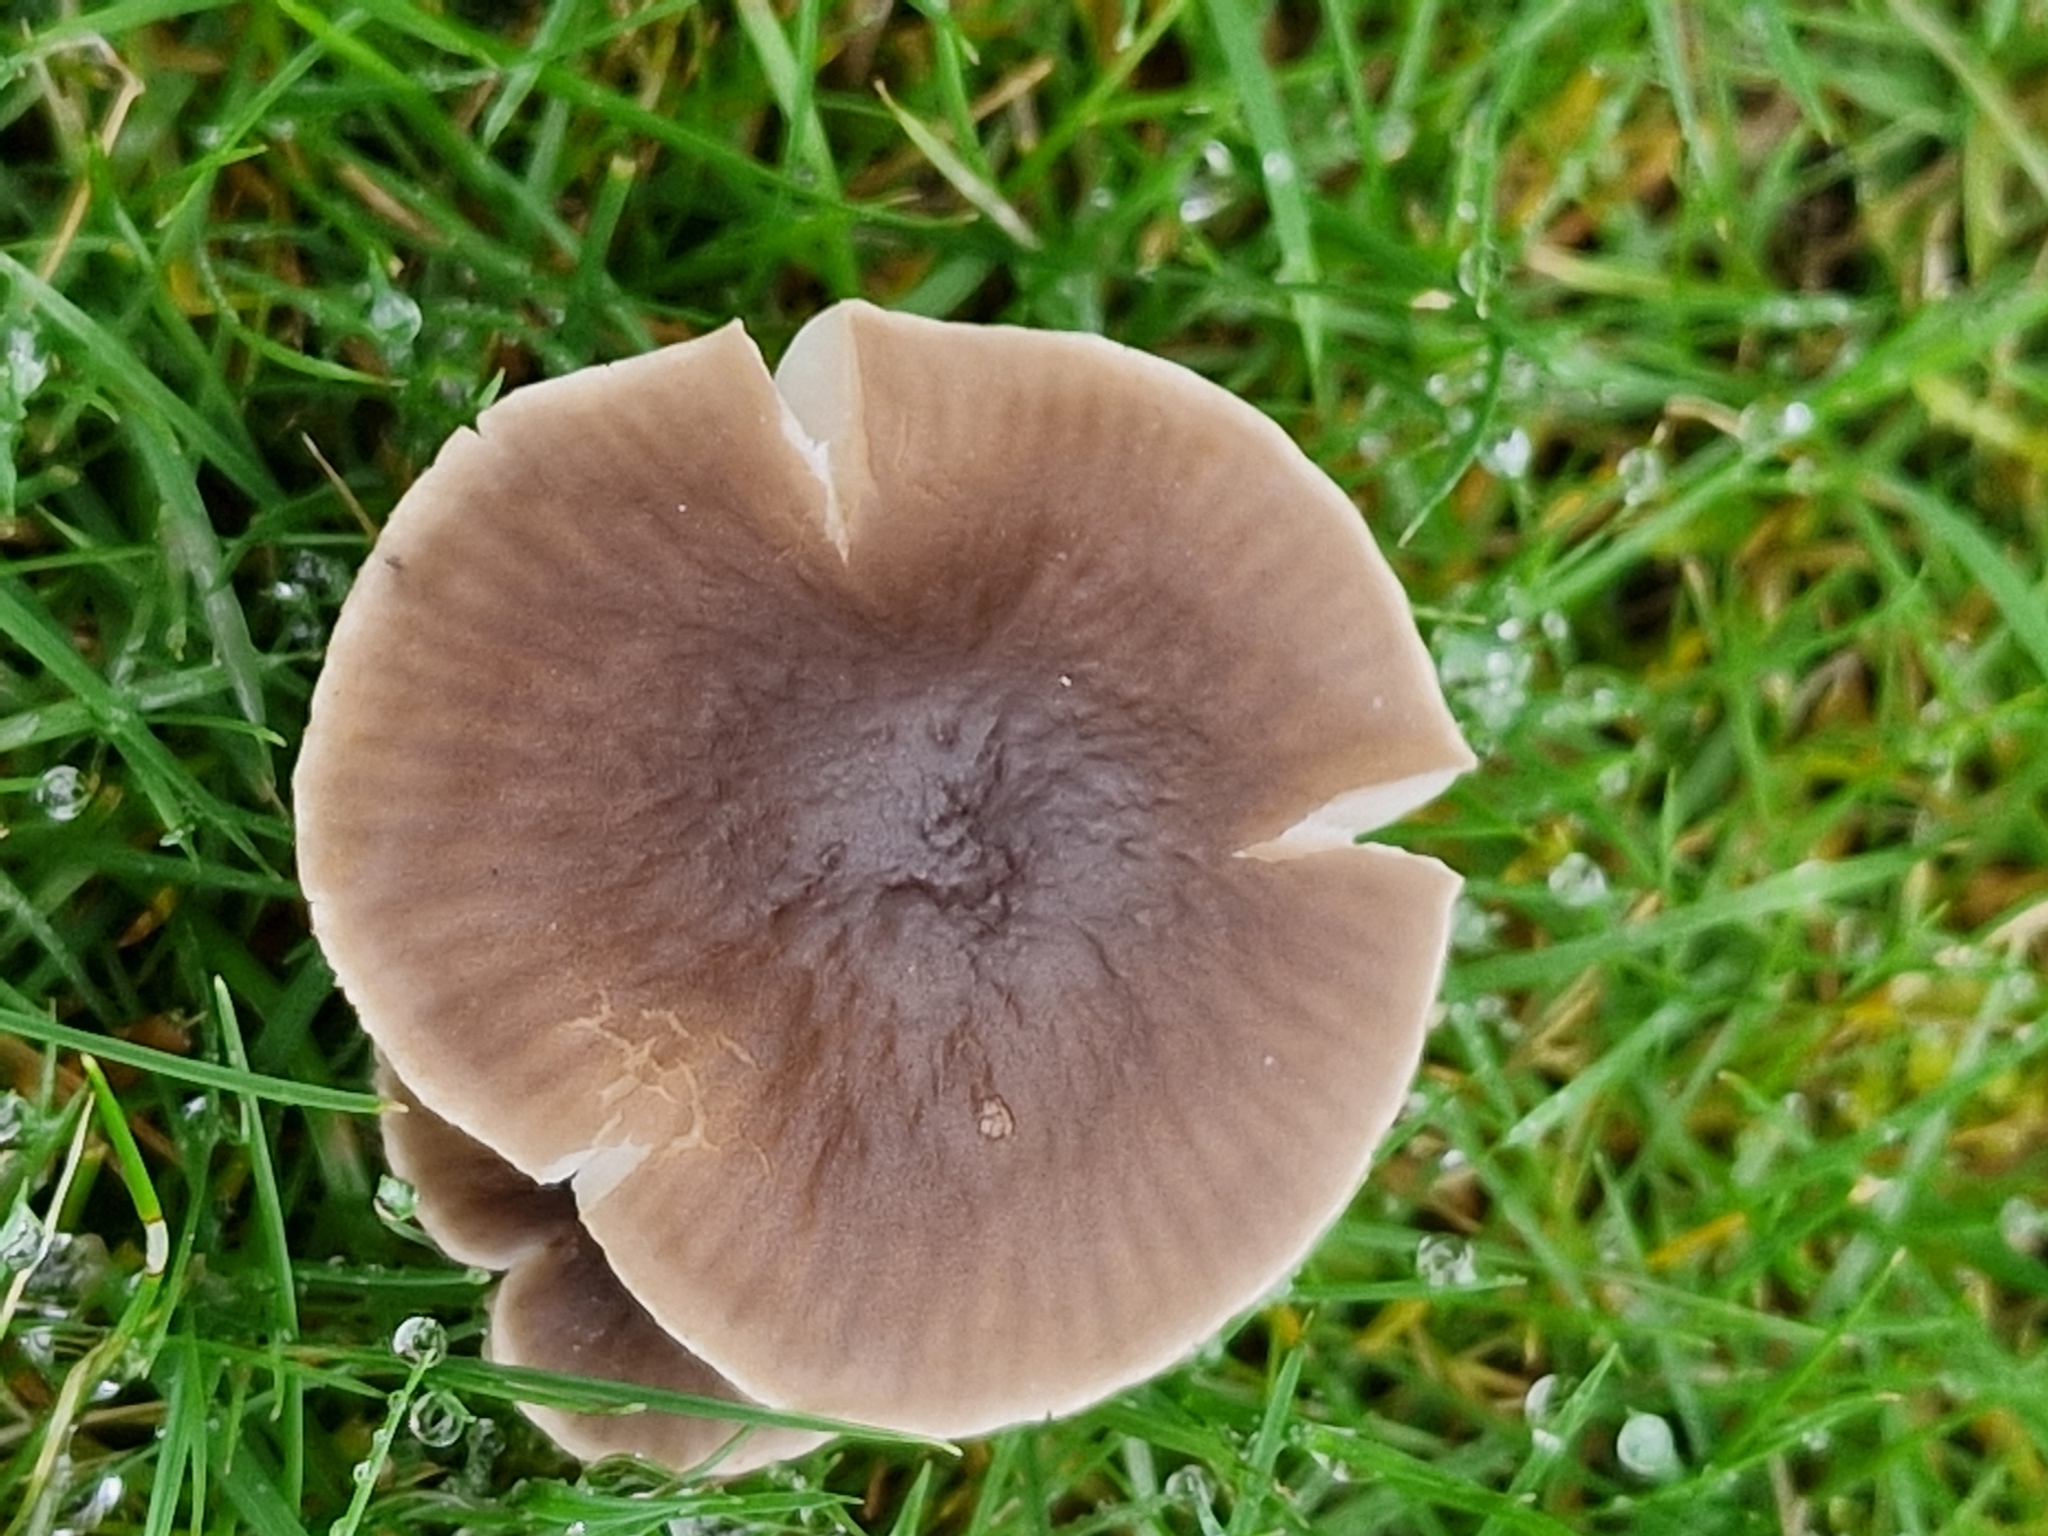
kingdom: Fungi
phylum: Basidiomycota
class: Agaricomycetes
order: Agaricales
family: Tricholomataceae
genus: Dermoloma
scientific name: Dermoloma cuneifolium
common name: Crazed cap
